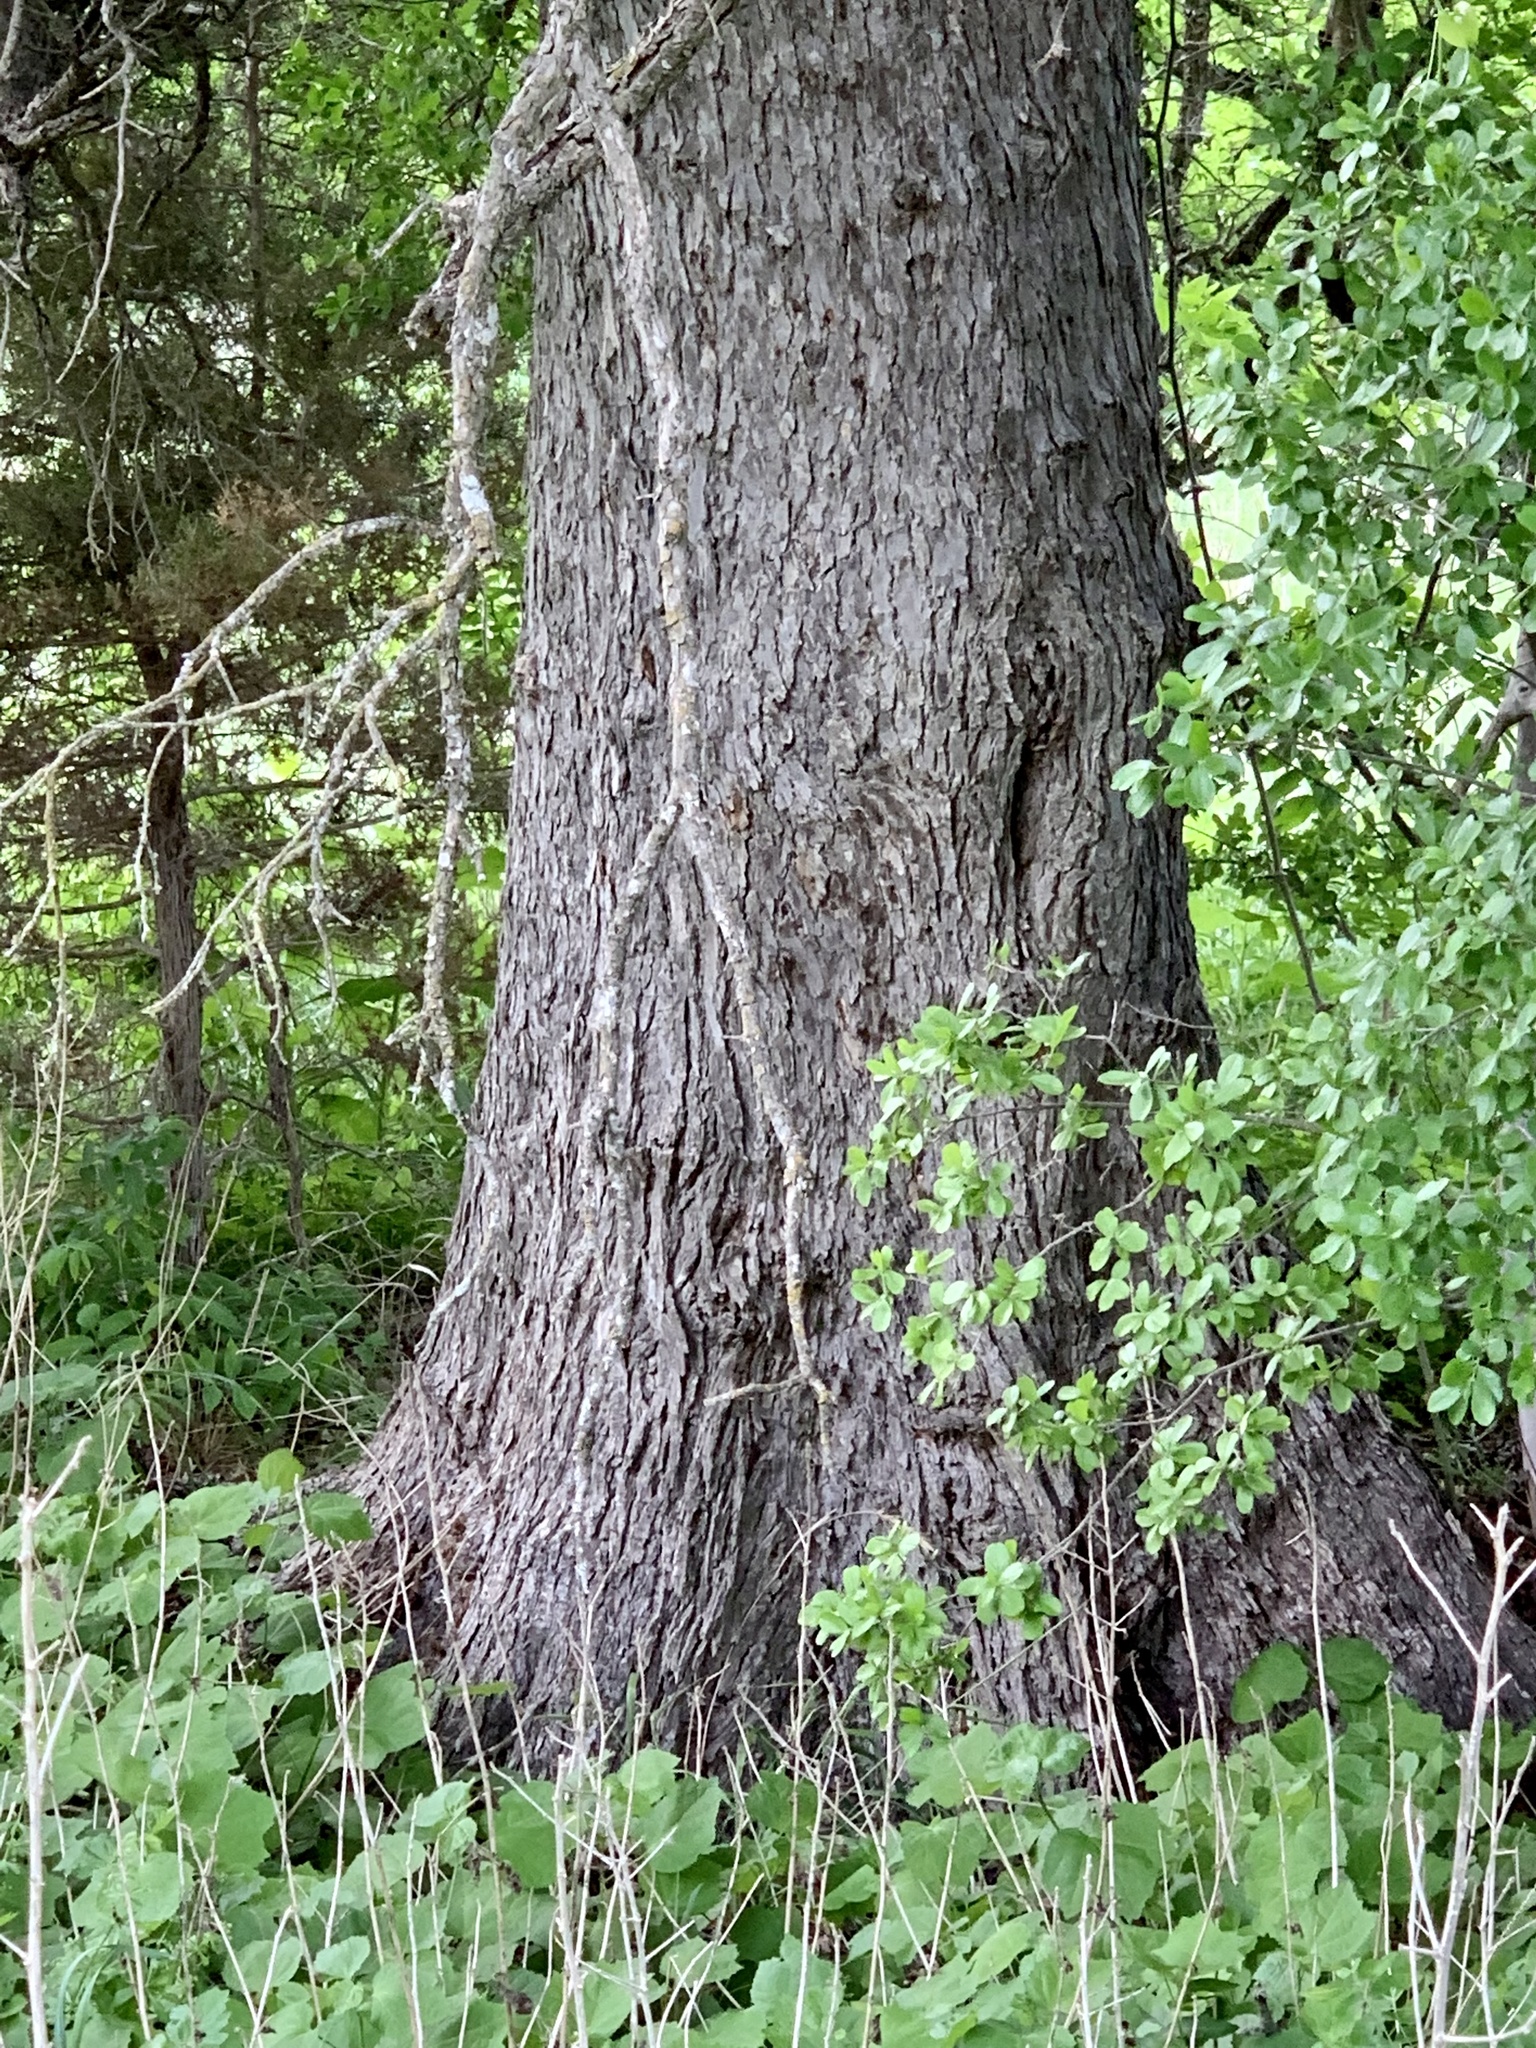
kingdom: Plantae
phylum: Tracheophyta
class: Magnoliopsida
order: Rosales
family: Ulmaceae
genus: Ulmus
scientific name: Ulmus crassifolia
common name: Basket elm
